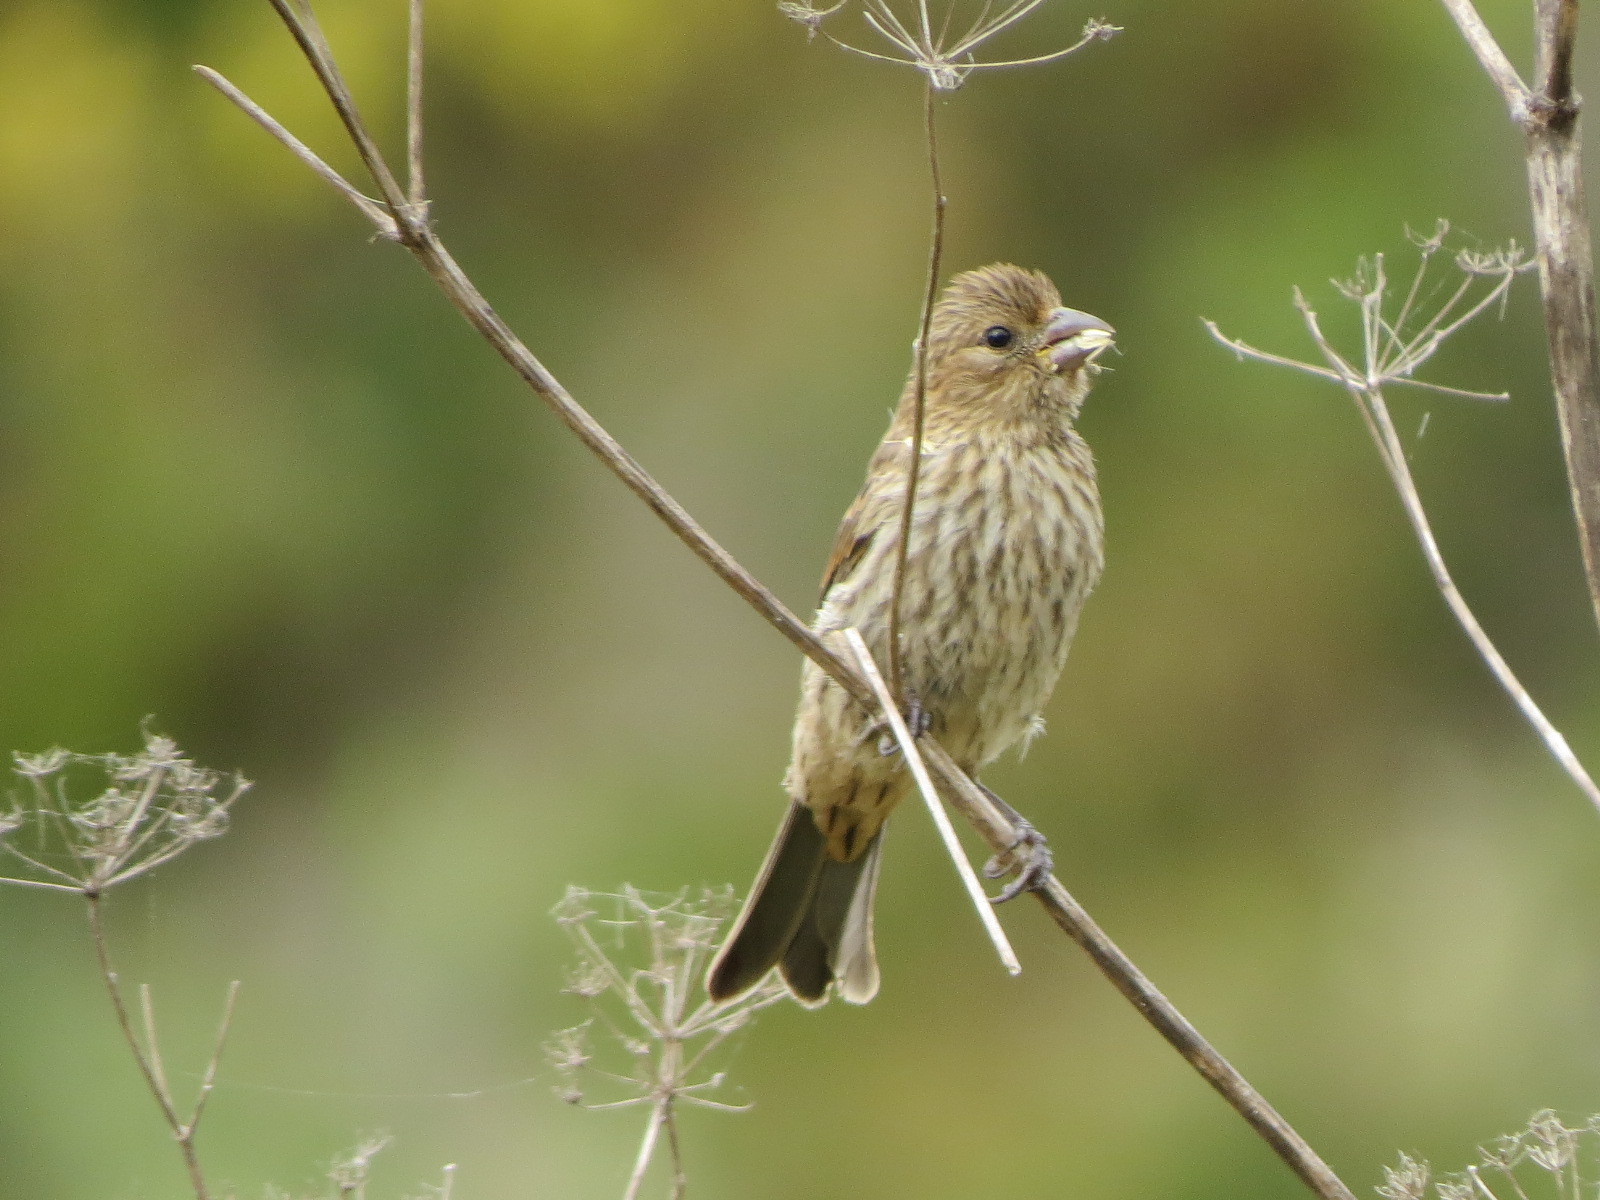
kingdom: Animalia
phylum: Chordata
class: Aves
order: Passeriformes
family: Fringillidae
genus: Haemorhous
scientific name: Haemorhous mexicanus
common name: House finch
